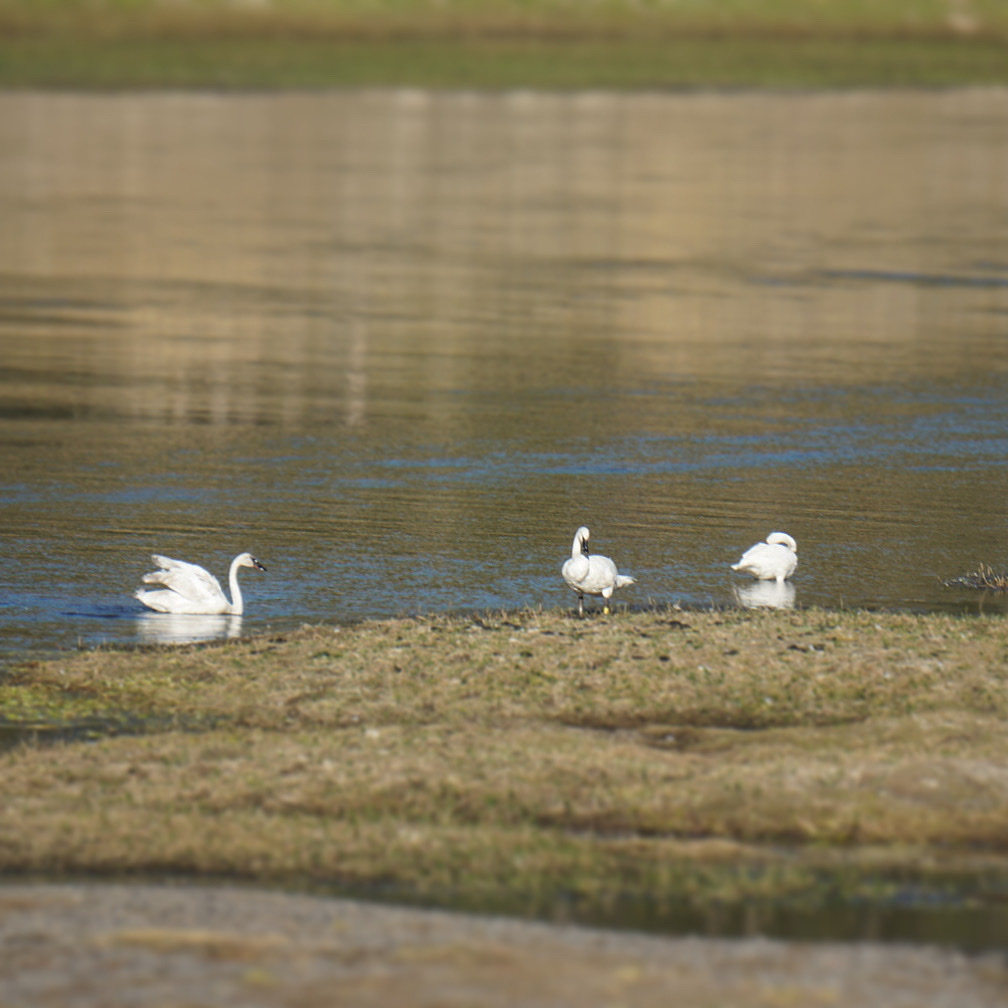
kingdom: Animalia
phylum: Chordata
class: Aves
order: Anseriformes
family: Anatidae
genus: Cygnus
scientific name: Cygnus buccinator
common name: Trumpeter swan
